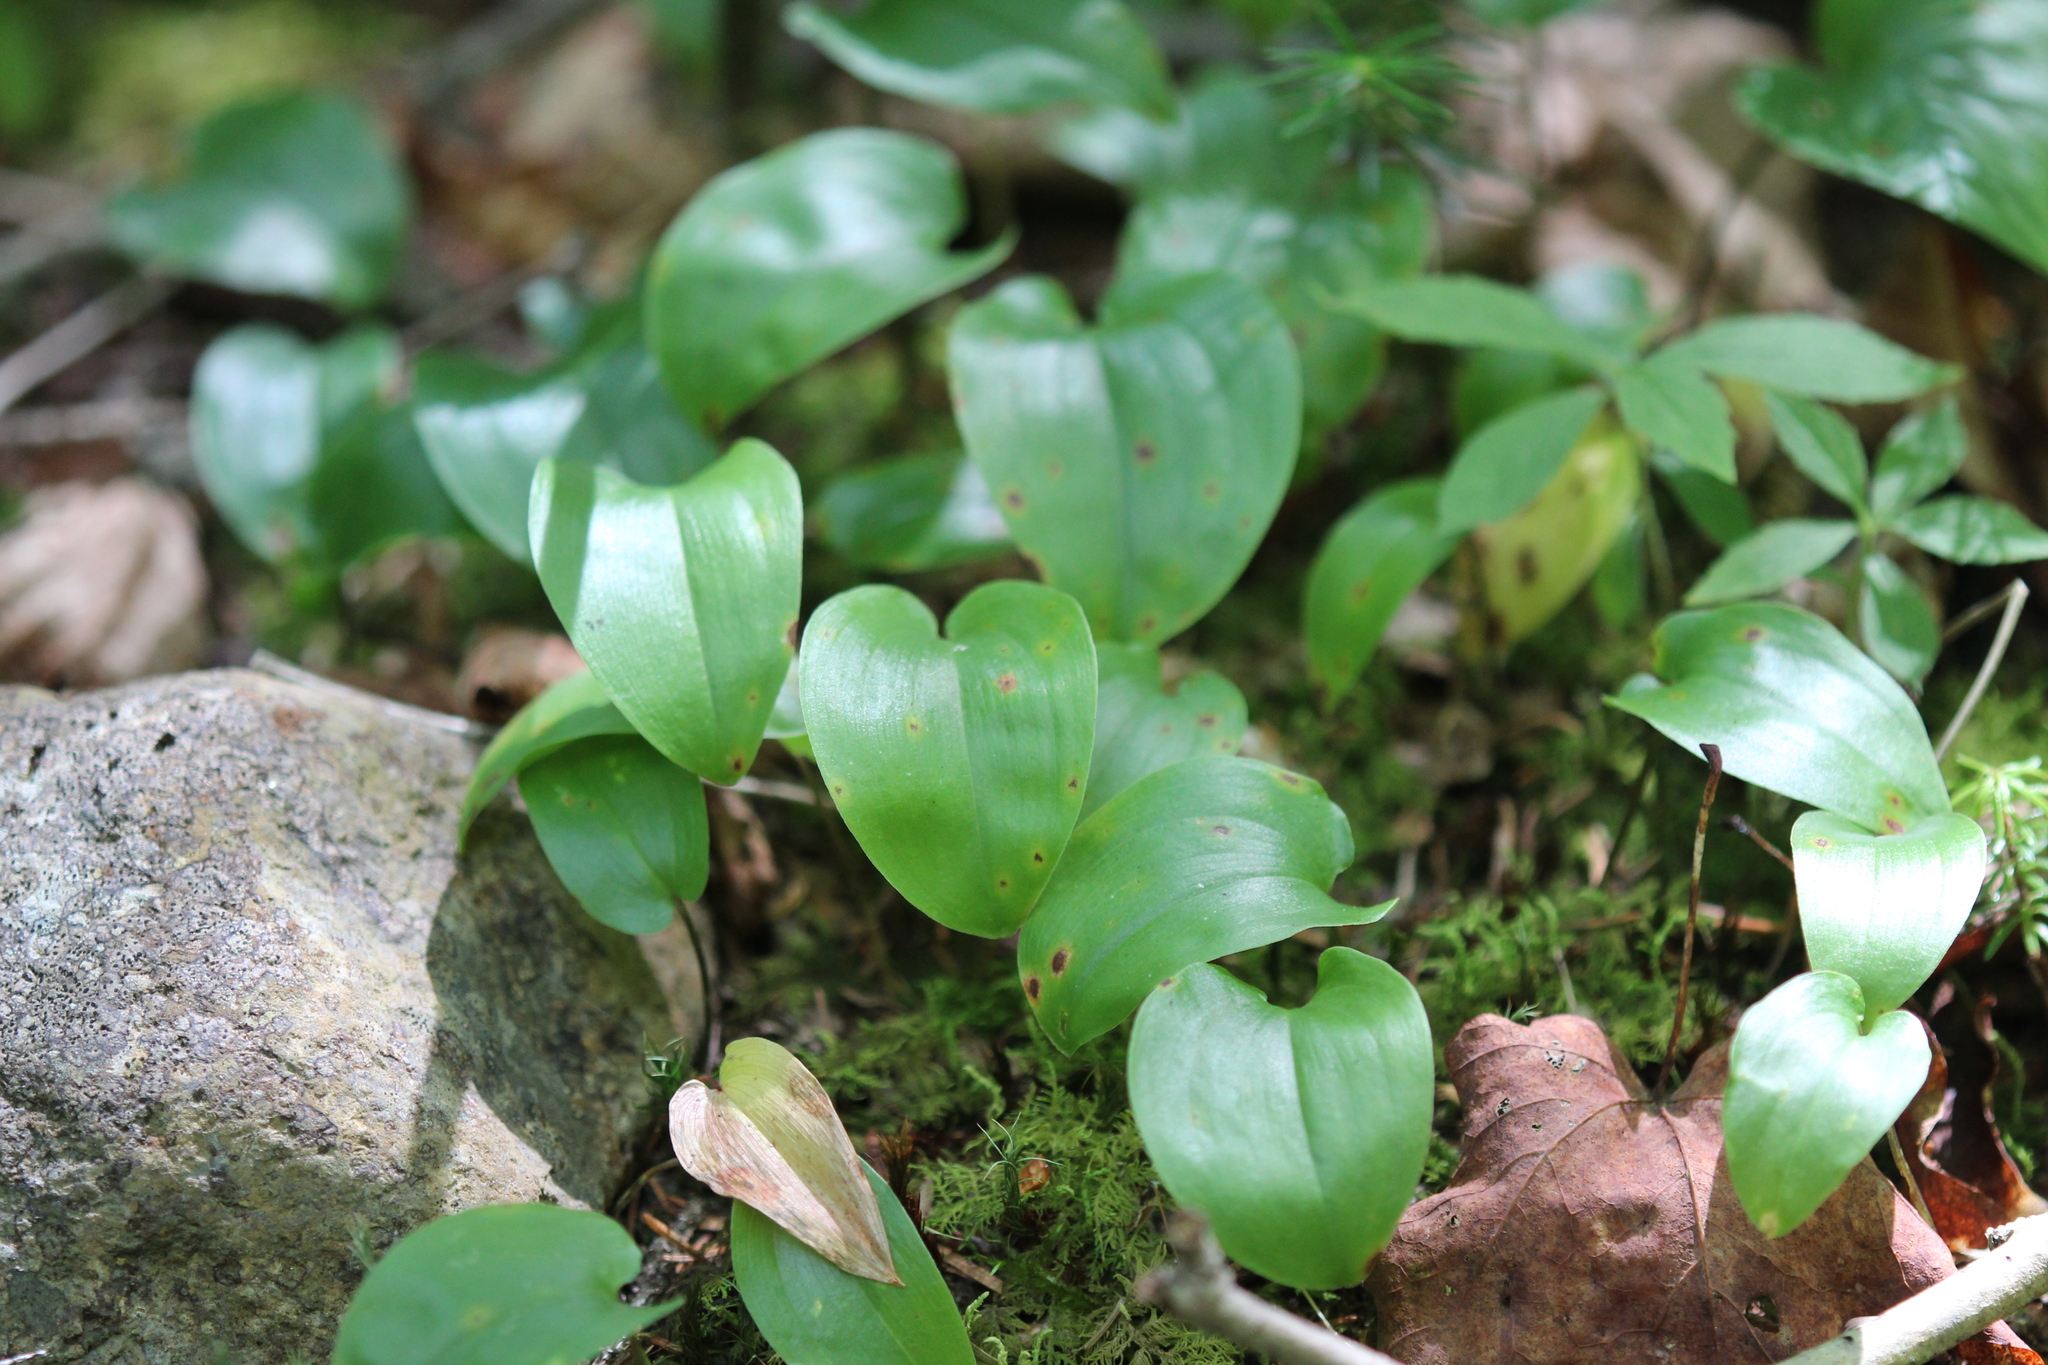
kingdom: Plantae
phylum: Tracheophyta
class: Liliopsida
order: Asparagales
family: Asparagaceae
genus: Maianthemum
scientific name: Maianthemum canadense
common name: False lily-of-the-valley
